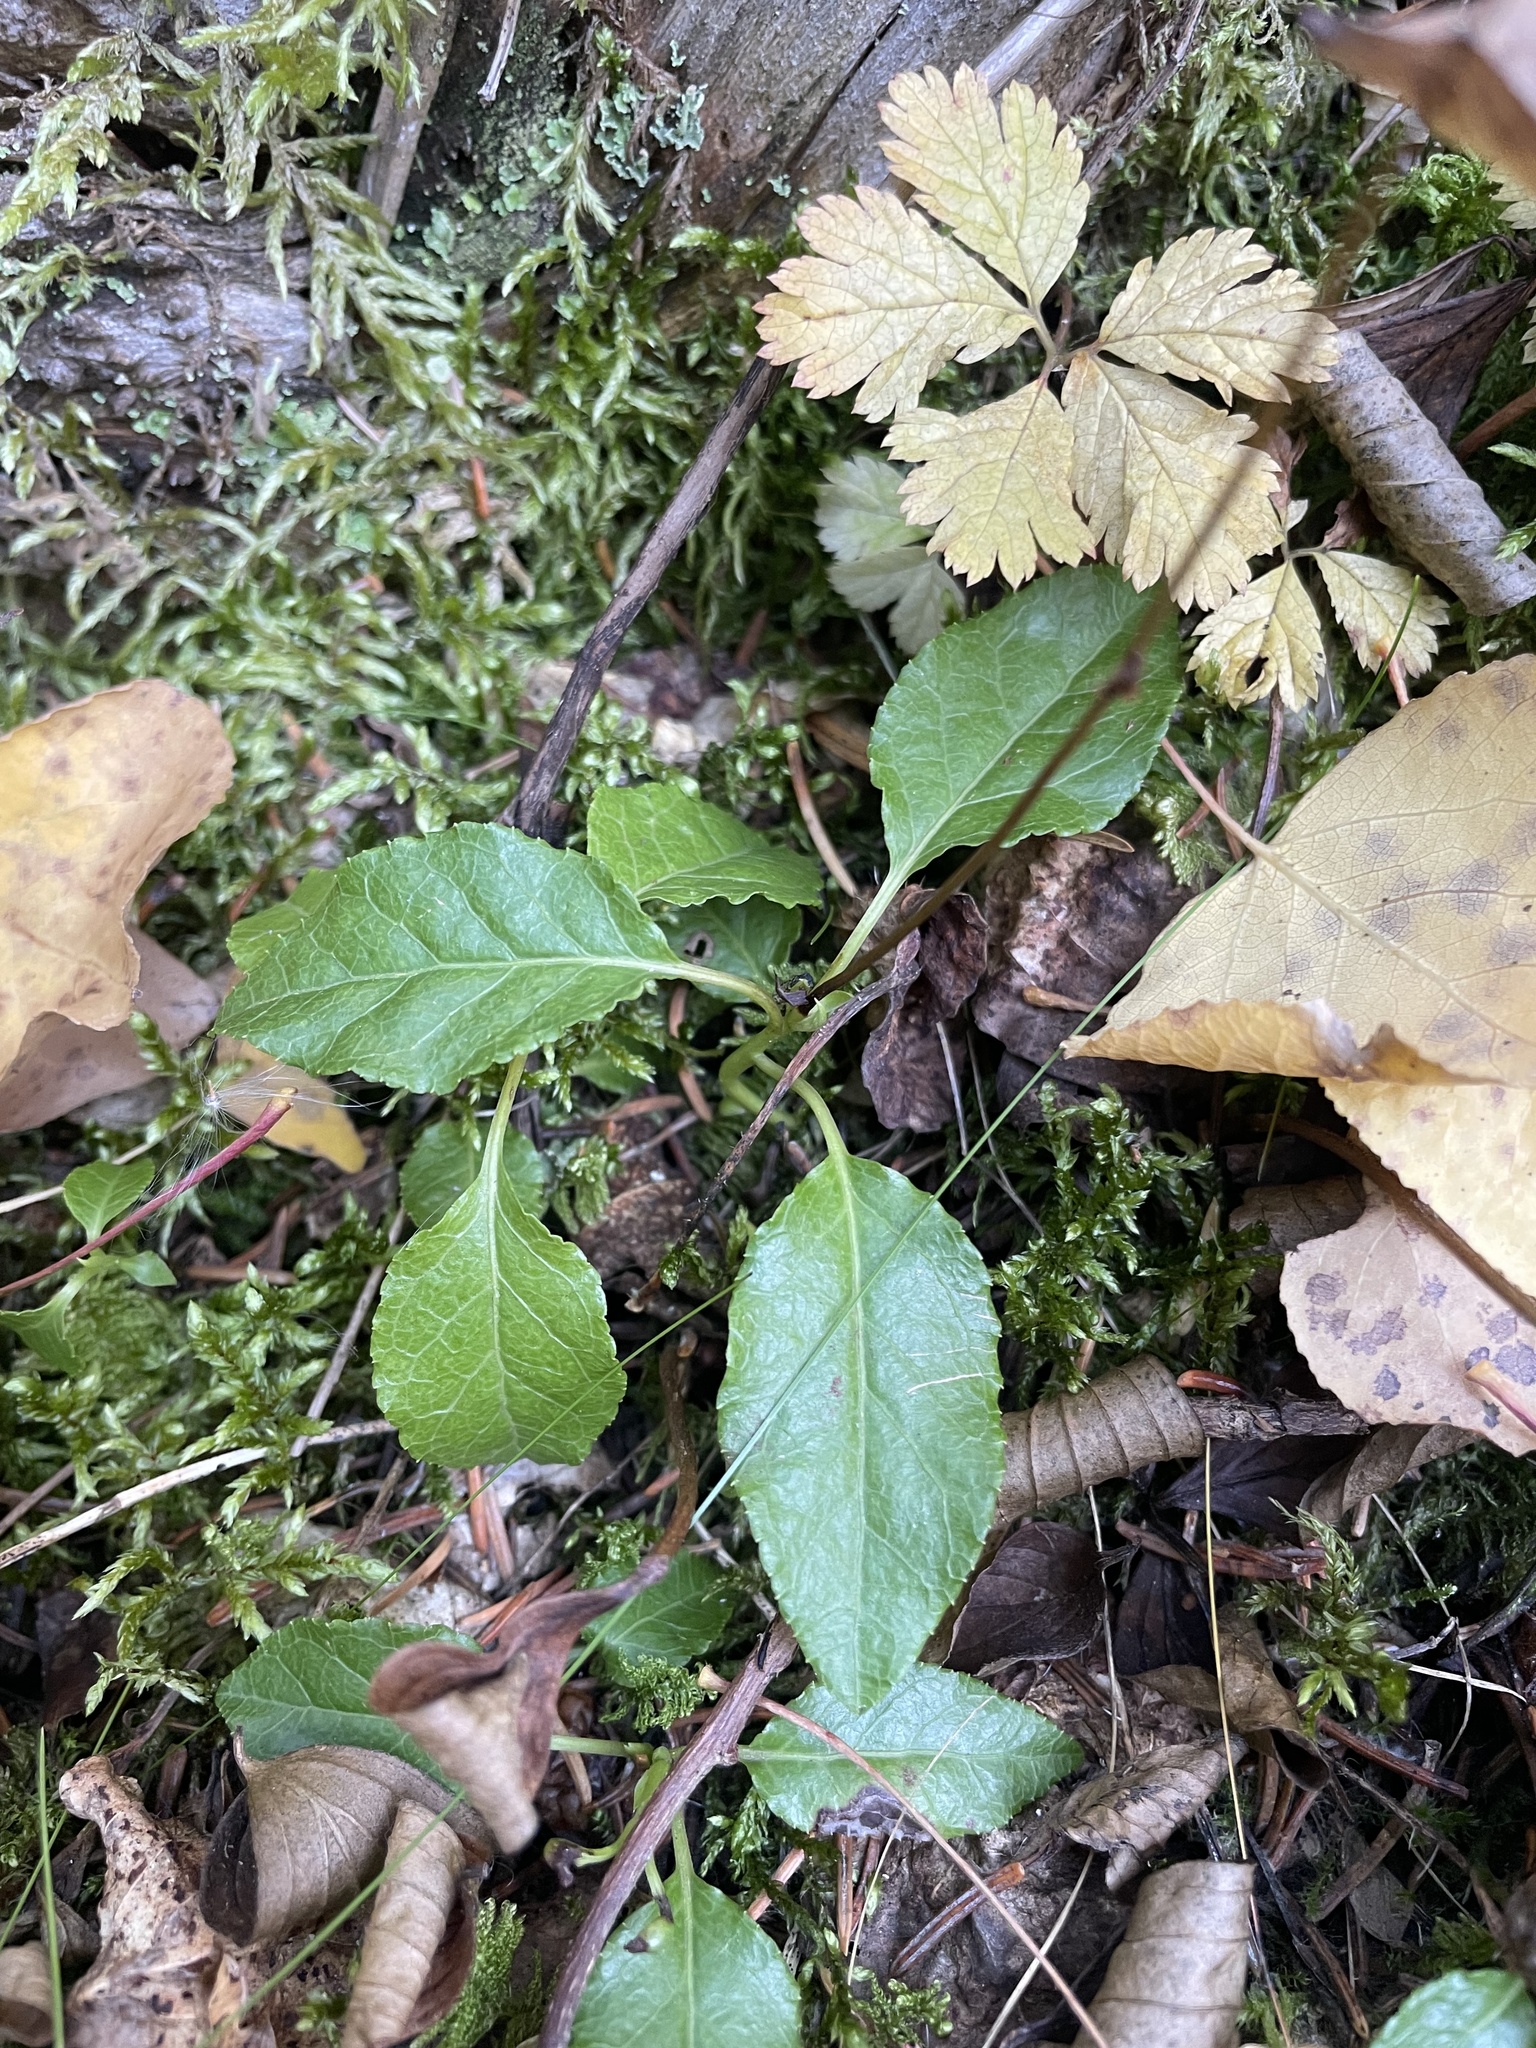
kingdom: Plantae
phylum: Tracheophyta
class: Magnoliopsida
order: Ericales
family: Ericaceae
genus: Orthilia
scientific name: Orthilia secunda
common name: One-sided orthilia
